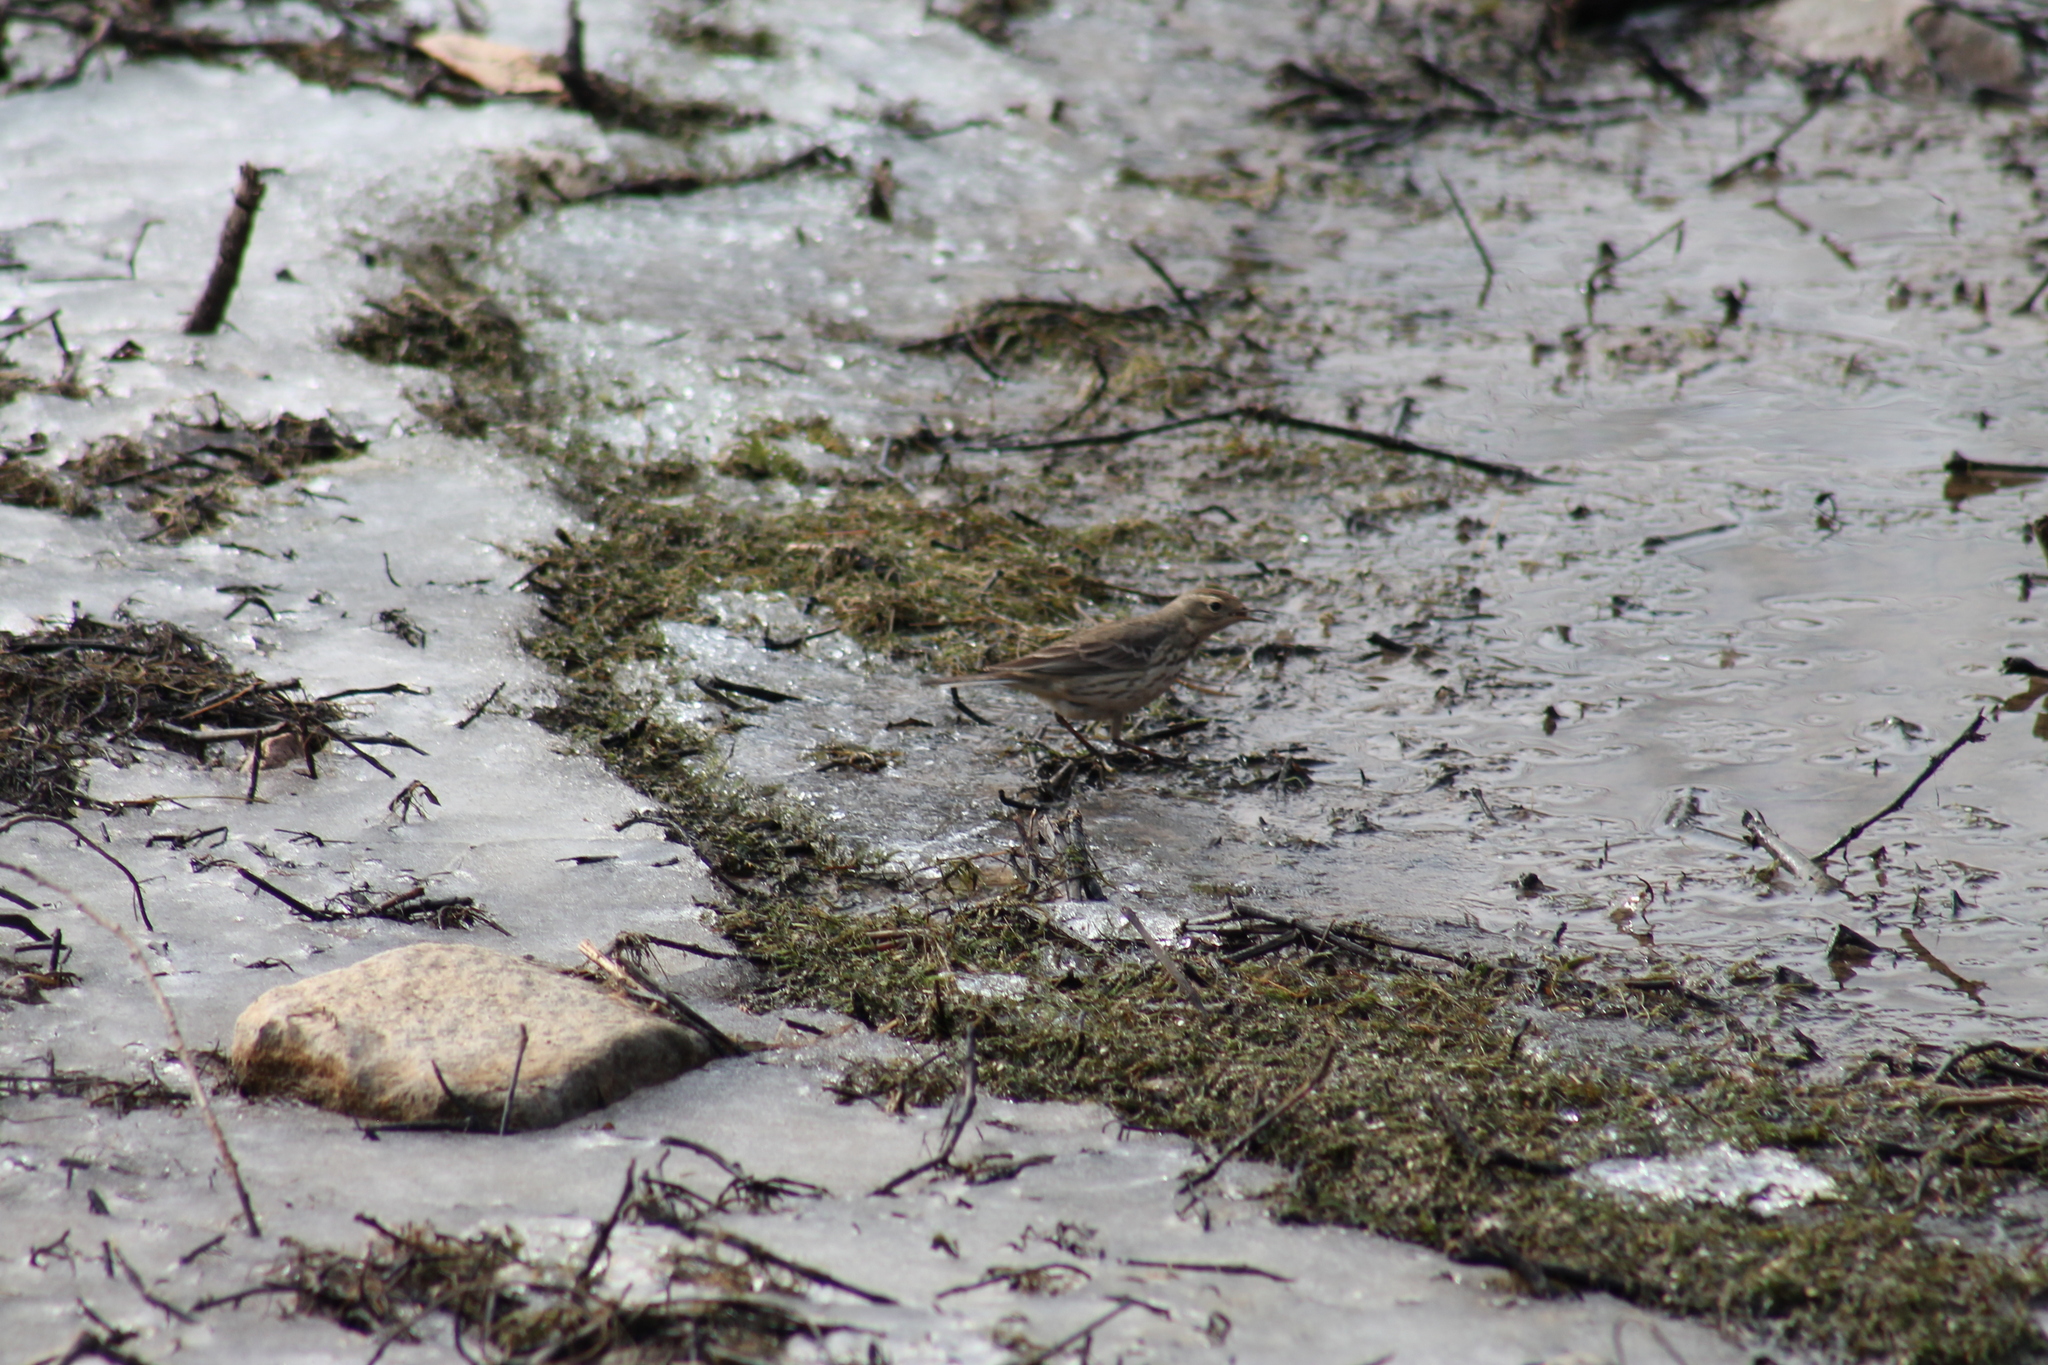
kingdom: Animalia
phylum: Chordata
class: Aves
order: Passeriformes
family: Motacillidae
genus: Anthus
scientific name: Anthus rubescens
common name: Buff-bellied pipit
